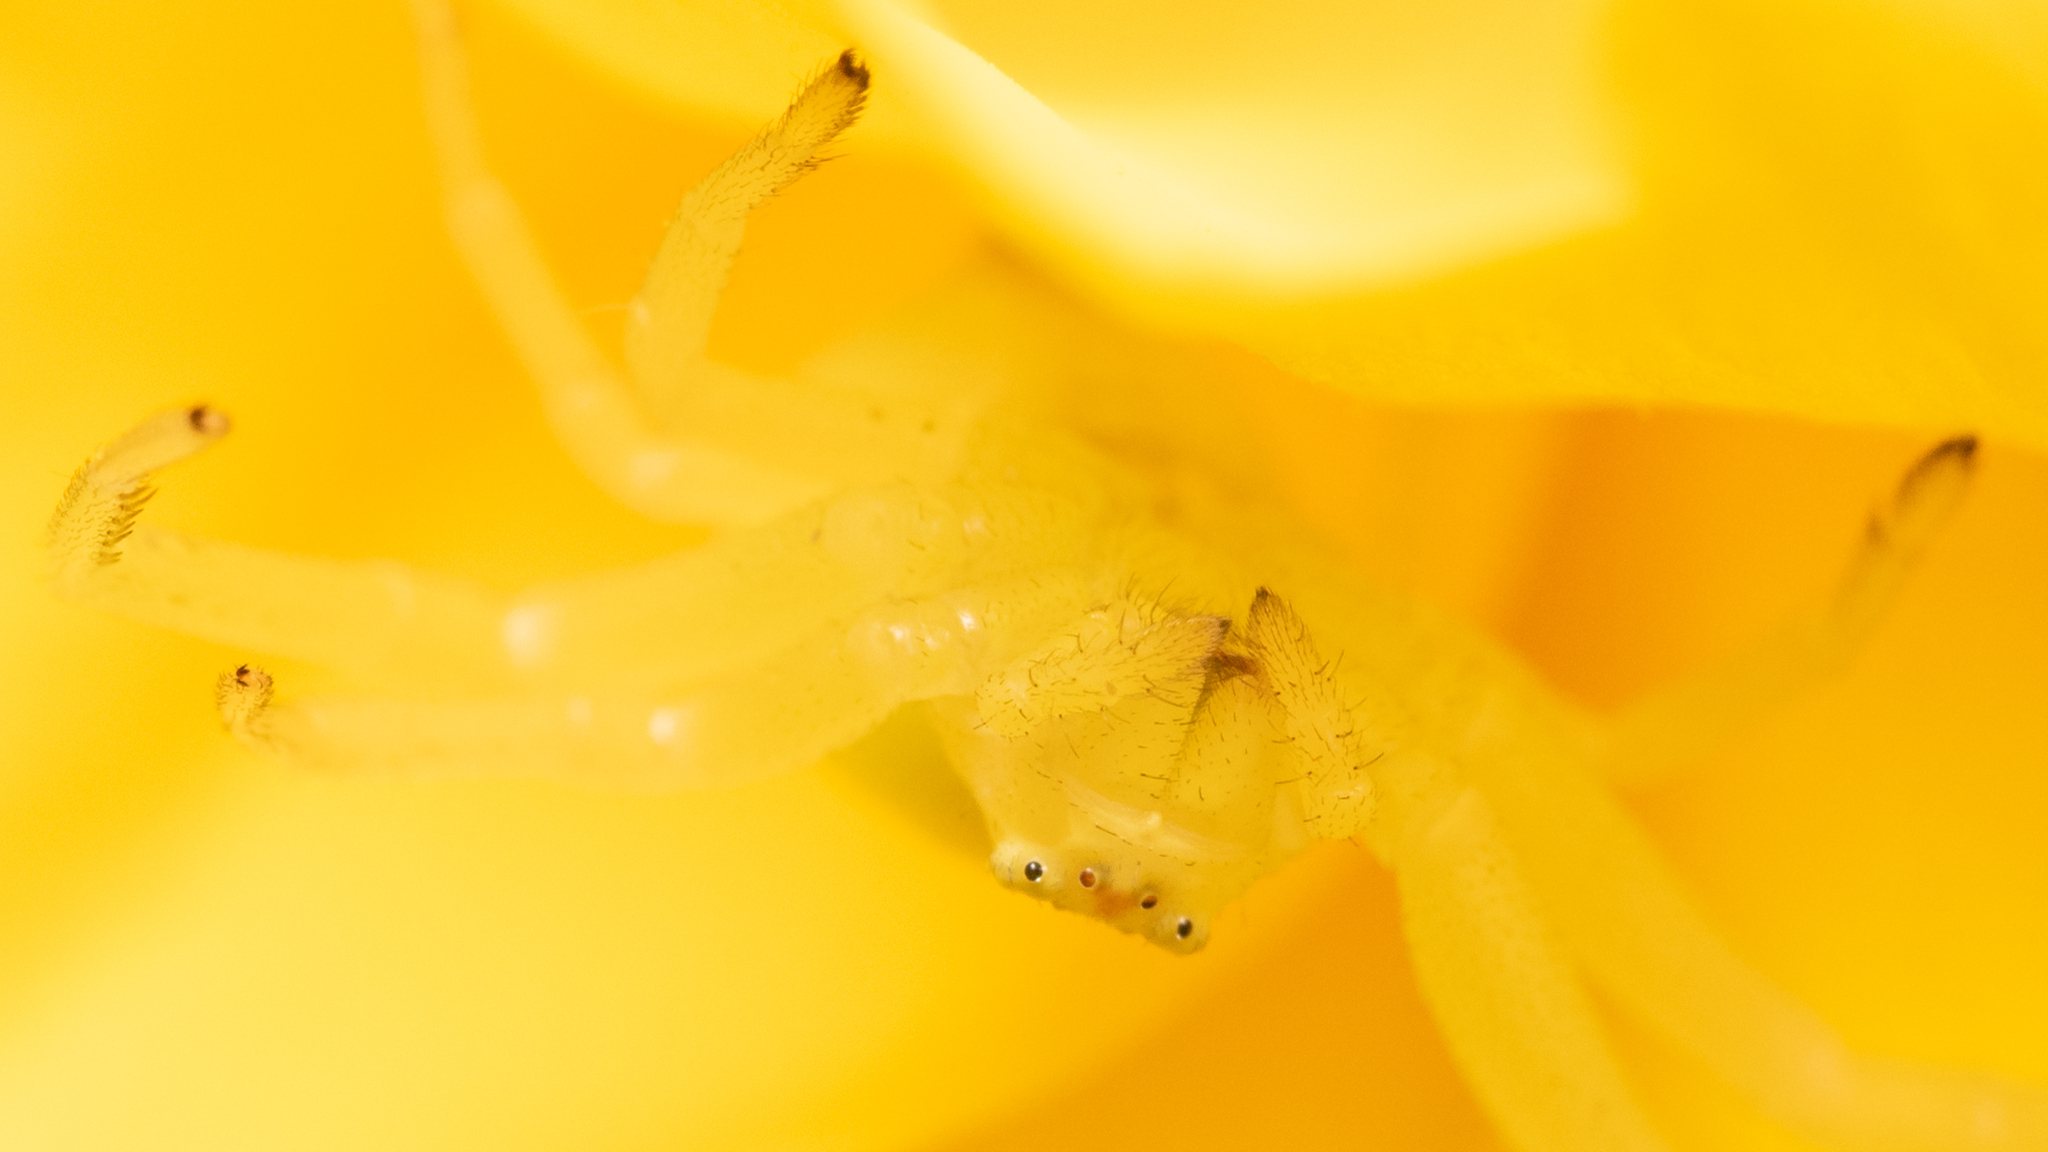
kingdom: Animalia
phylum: Arthropoda
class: Arachnida
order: Araneae
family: Thomisidae
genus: Misumena
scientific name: Misumena vatia
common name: Goldenrod crab spider
